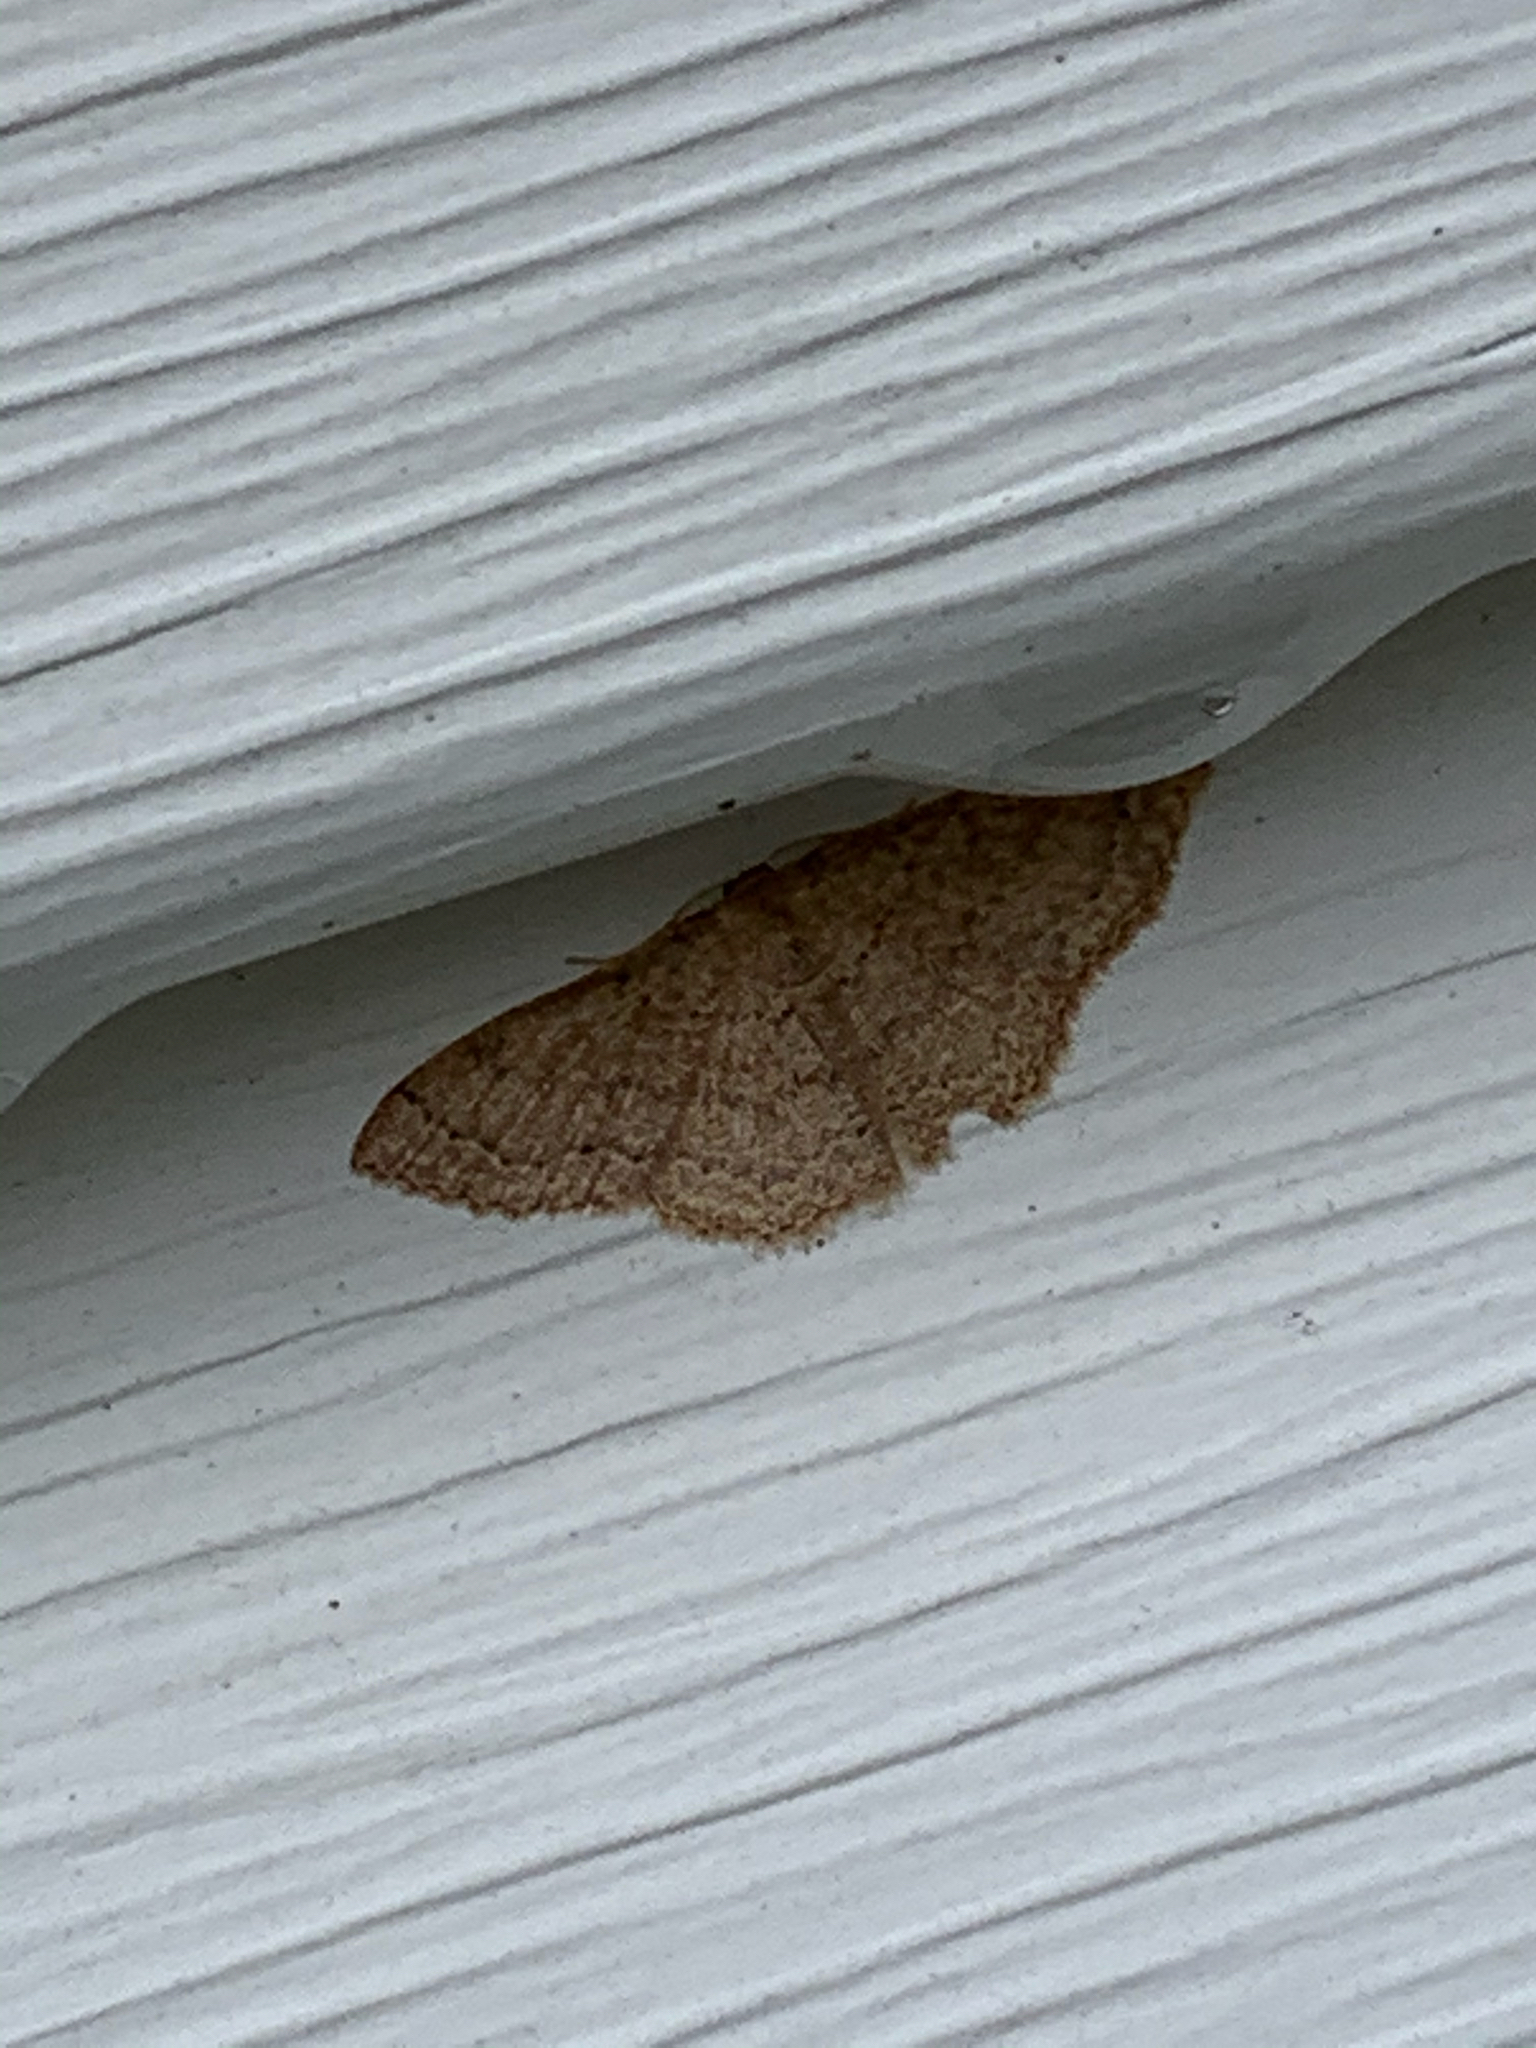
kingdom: Animalia
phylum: Arthropoda
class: Insecta
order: Lepidoptera
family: Geometridae
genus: Pleuroprucha
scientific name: Pleuroprucha insulsaria
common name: Common tan wave
